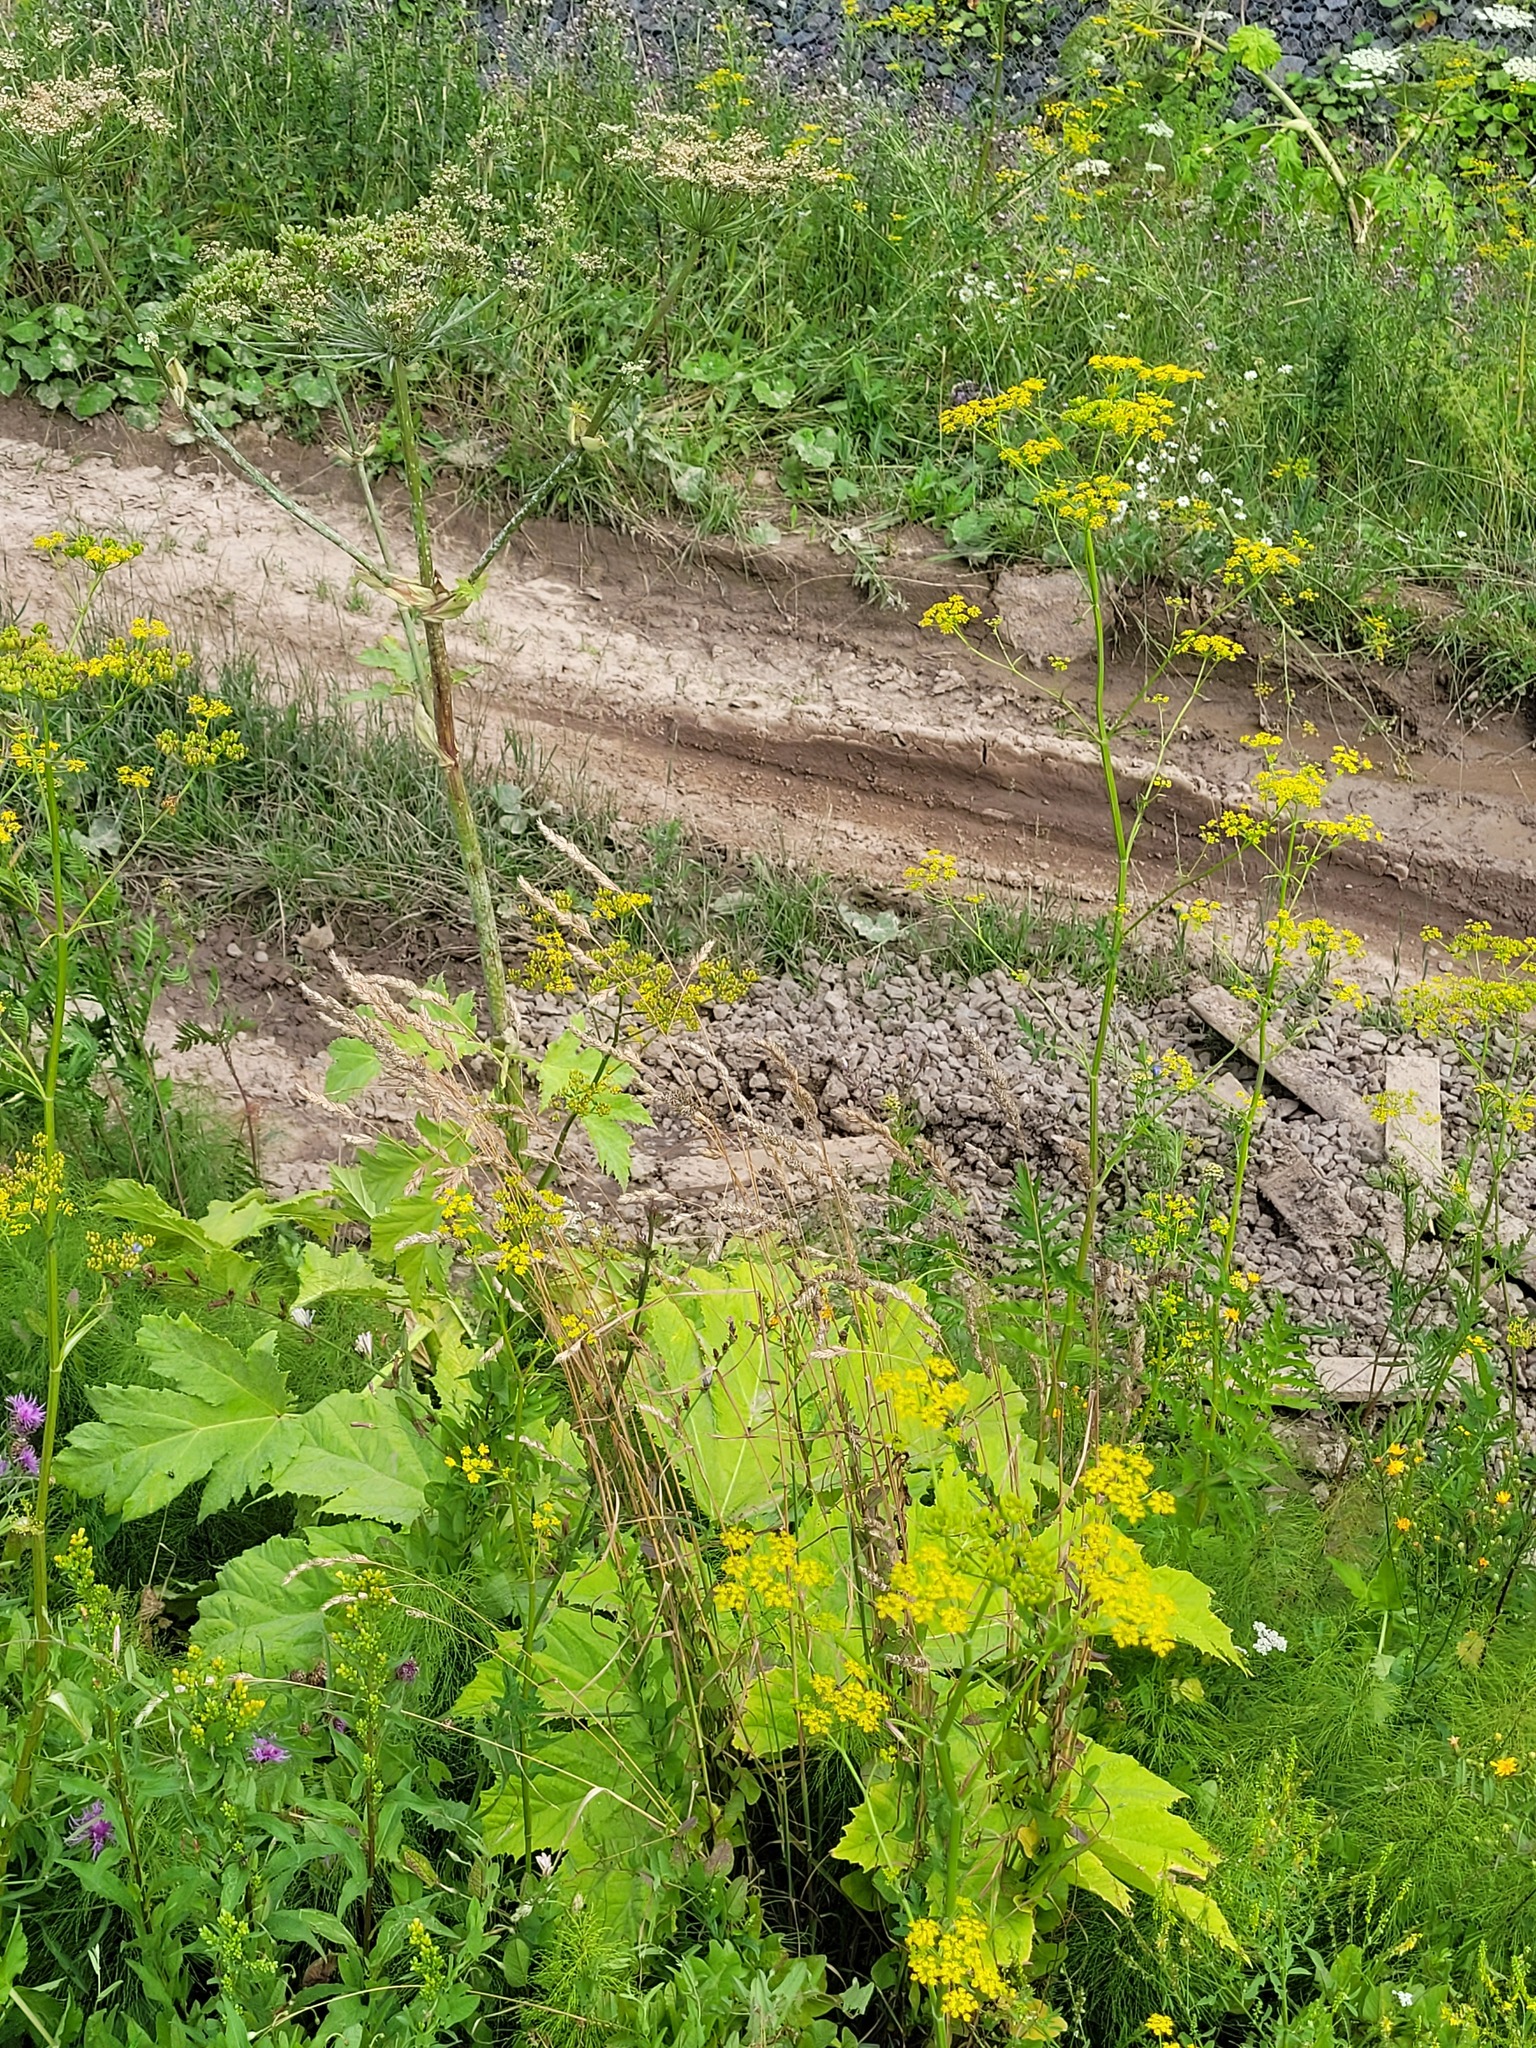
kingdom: Plantae
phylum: Tracheophyta
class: Liliopsida
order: Poales
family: Poaceae
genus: Dactylis
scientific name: Dactylis glomerata
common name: Orchardgrass
